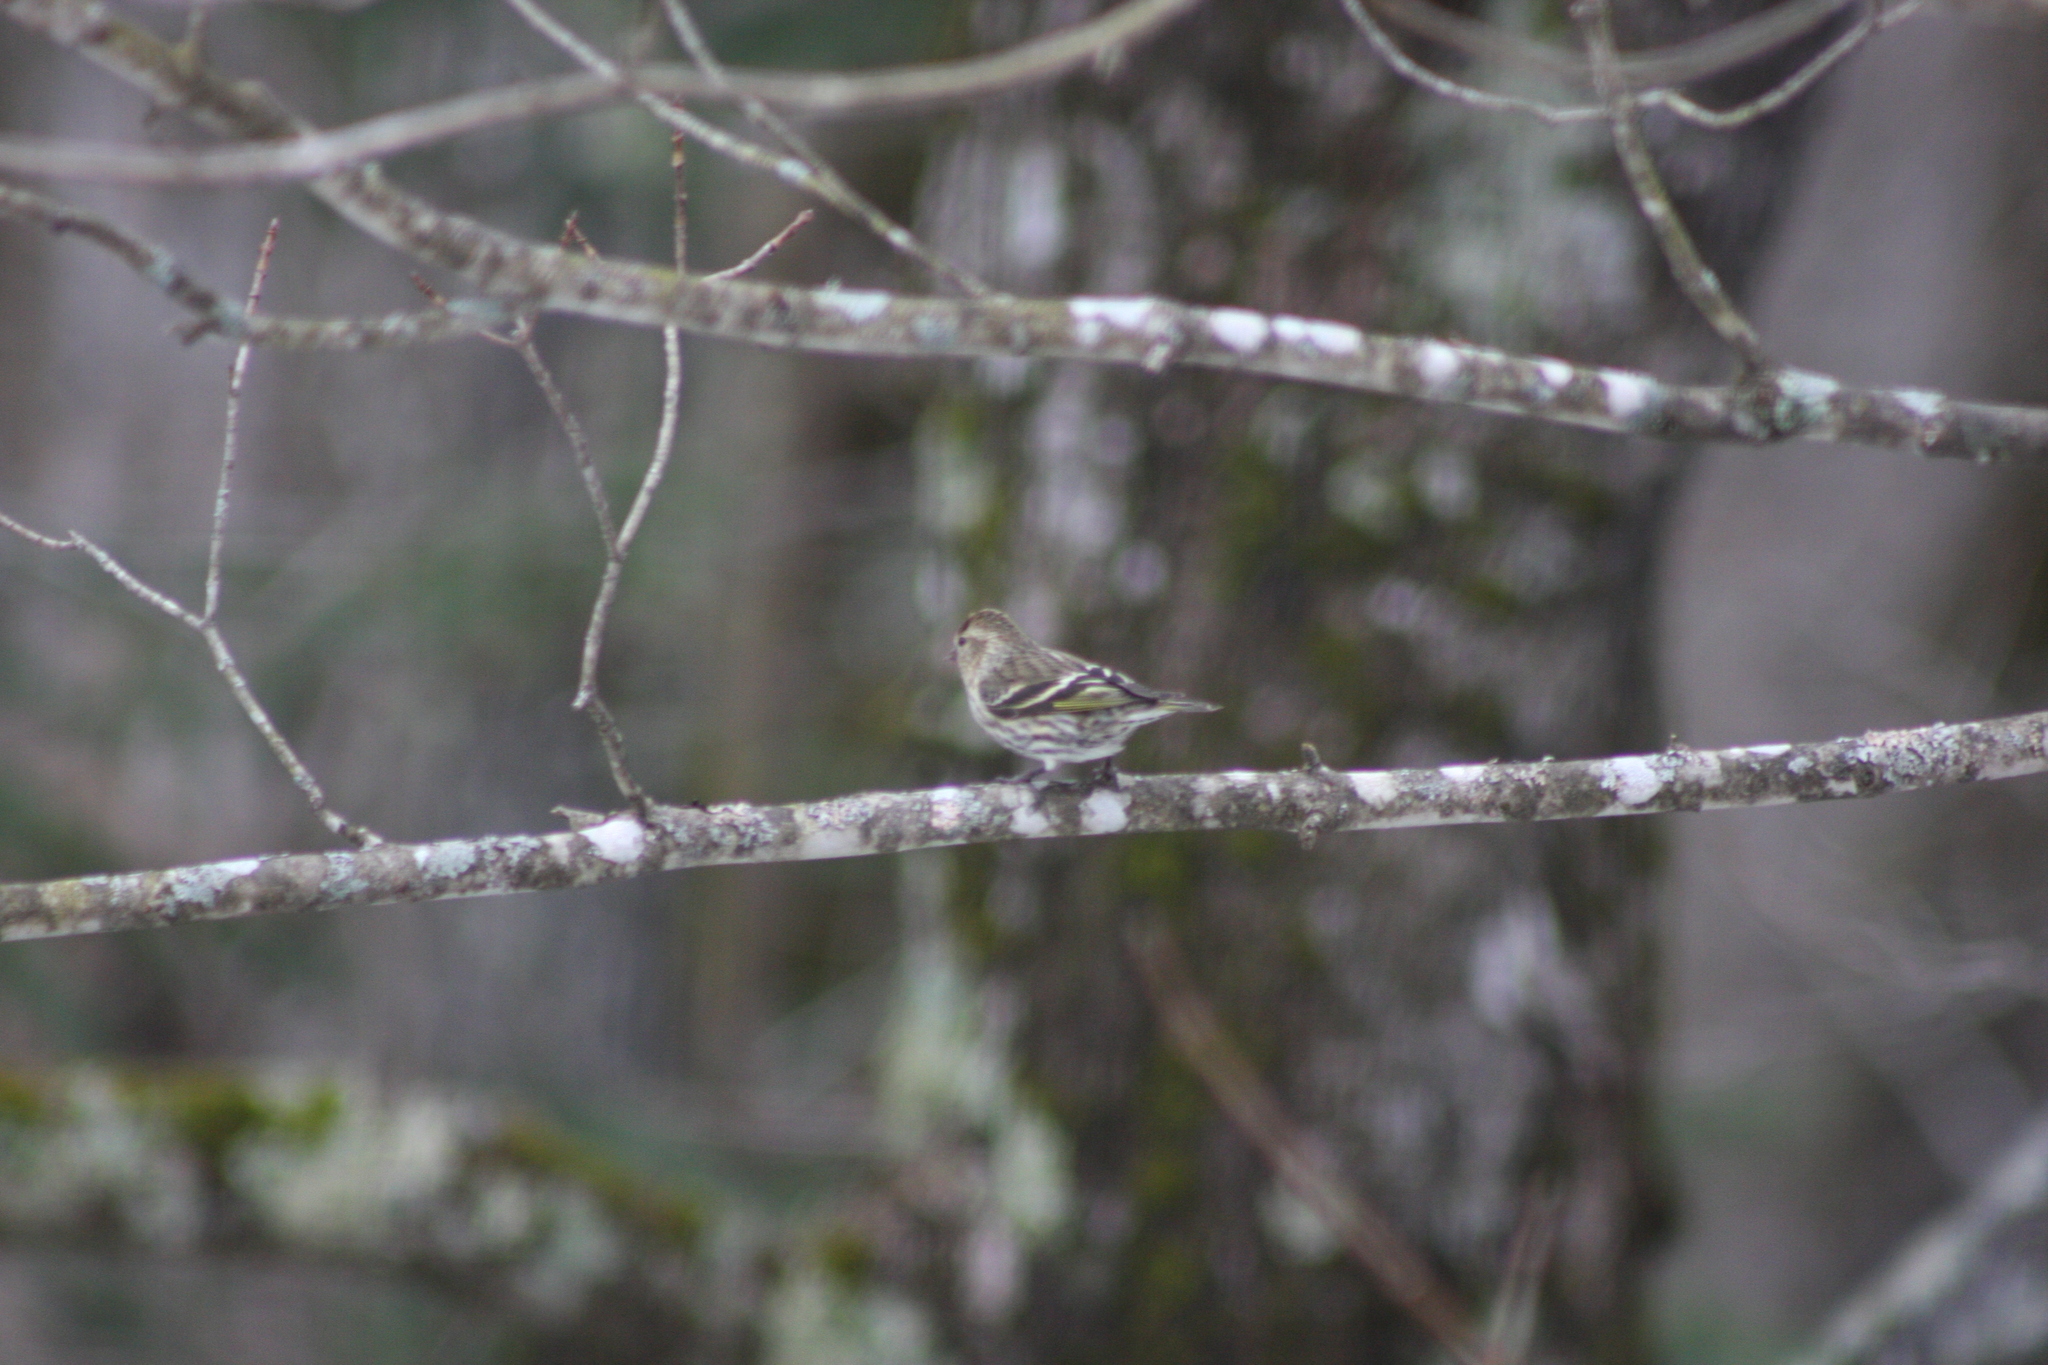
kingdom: Animalia
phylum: Chordata
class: Aves
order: Passeriformes
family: Fringillidae
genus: Spinus
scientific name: Spinus pinus
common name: Pine siskin
